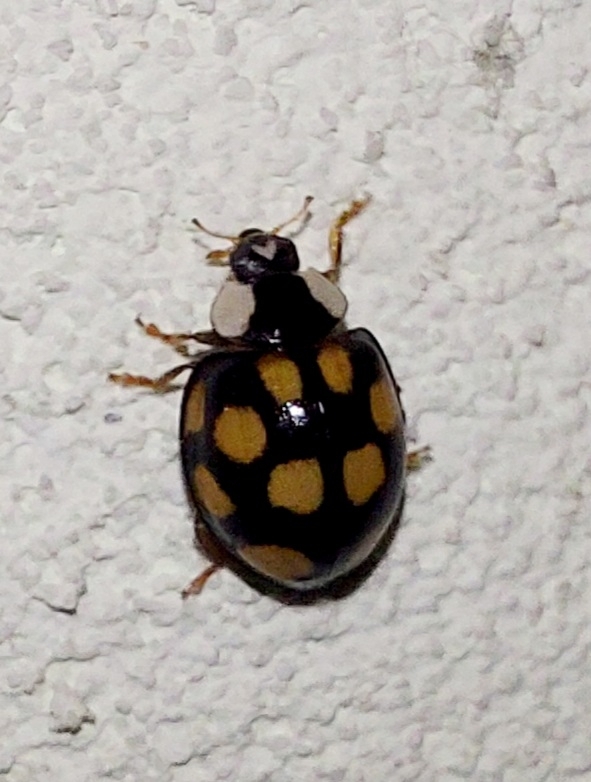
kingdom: Animalia
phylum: Arthropoda
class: Insecta
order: Coleoptera
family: Coccinellidae
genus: Harmonia
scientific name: Harmonia axyridis
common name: Harlequin ladybird
